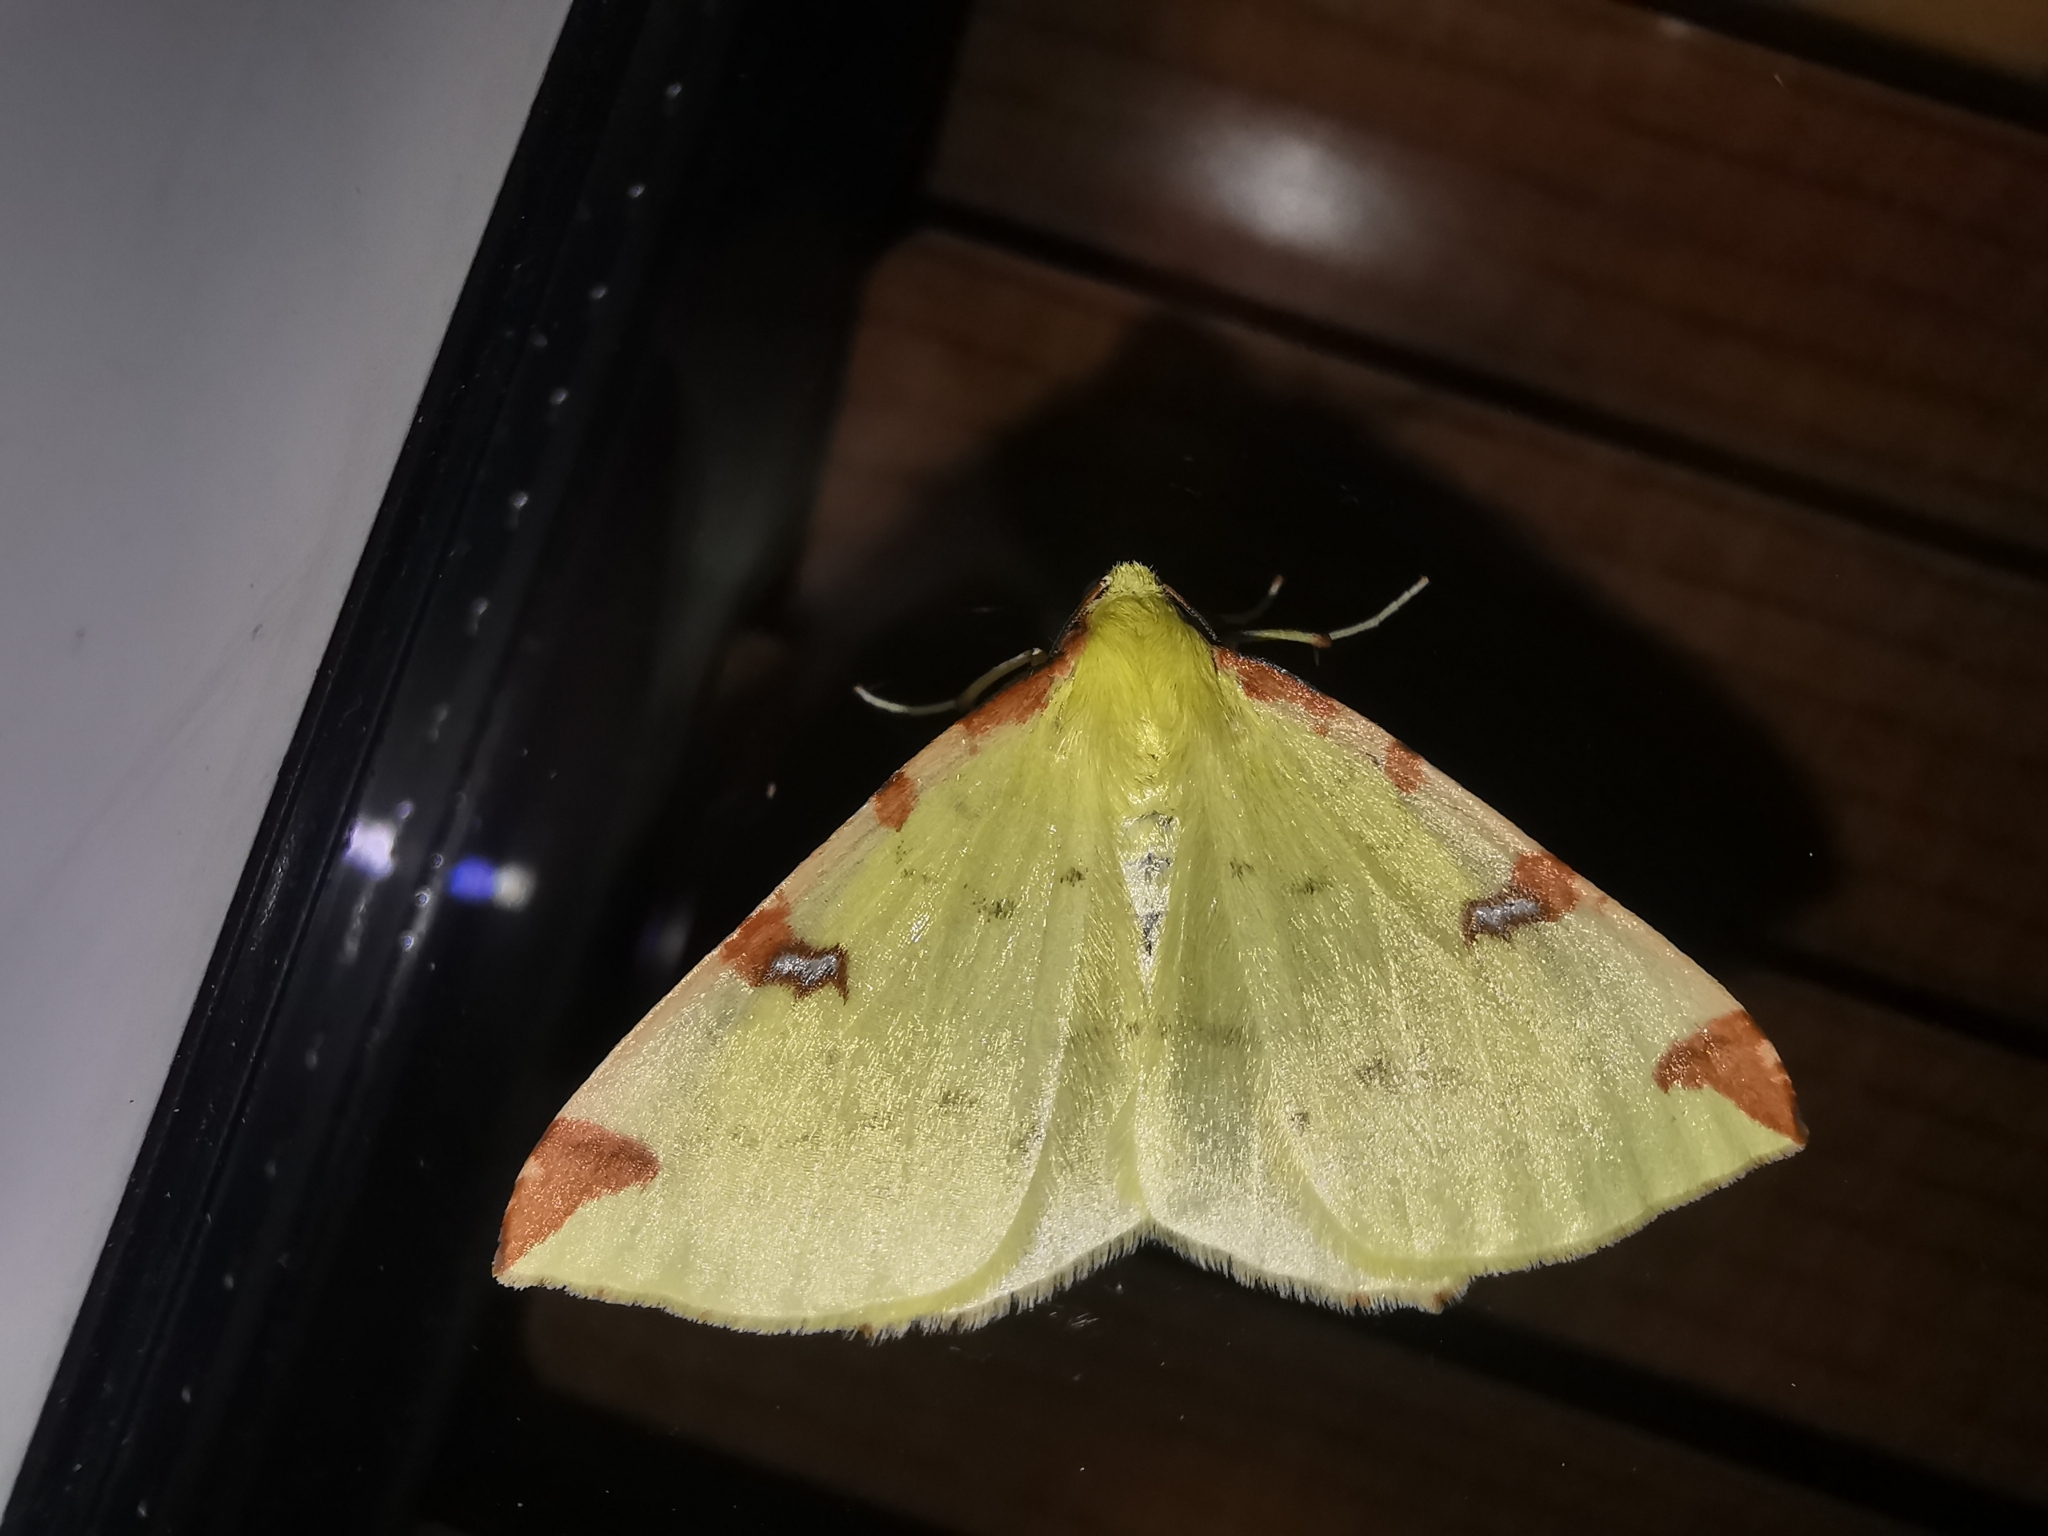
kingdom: Animalia
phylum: Arthropoda
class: Insecta
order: Lepidoptera
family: Geometridae
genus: Opisthograptis
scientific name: Opisthograptis luteolata
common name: Brimstone moth
